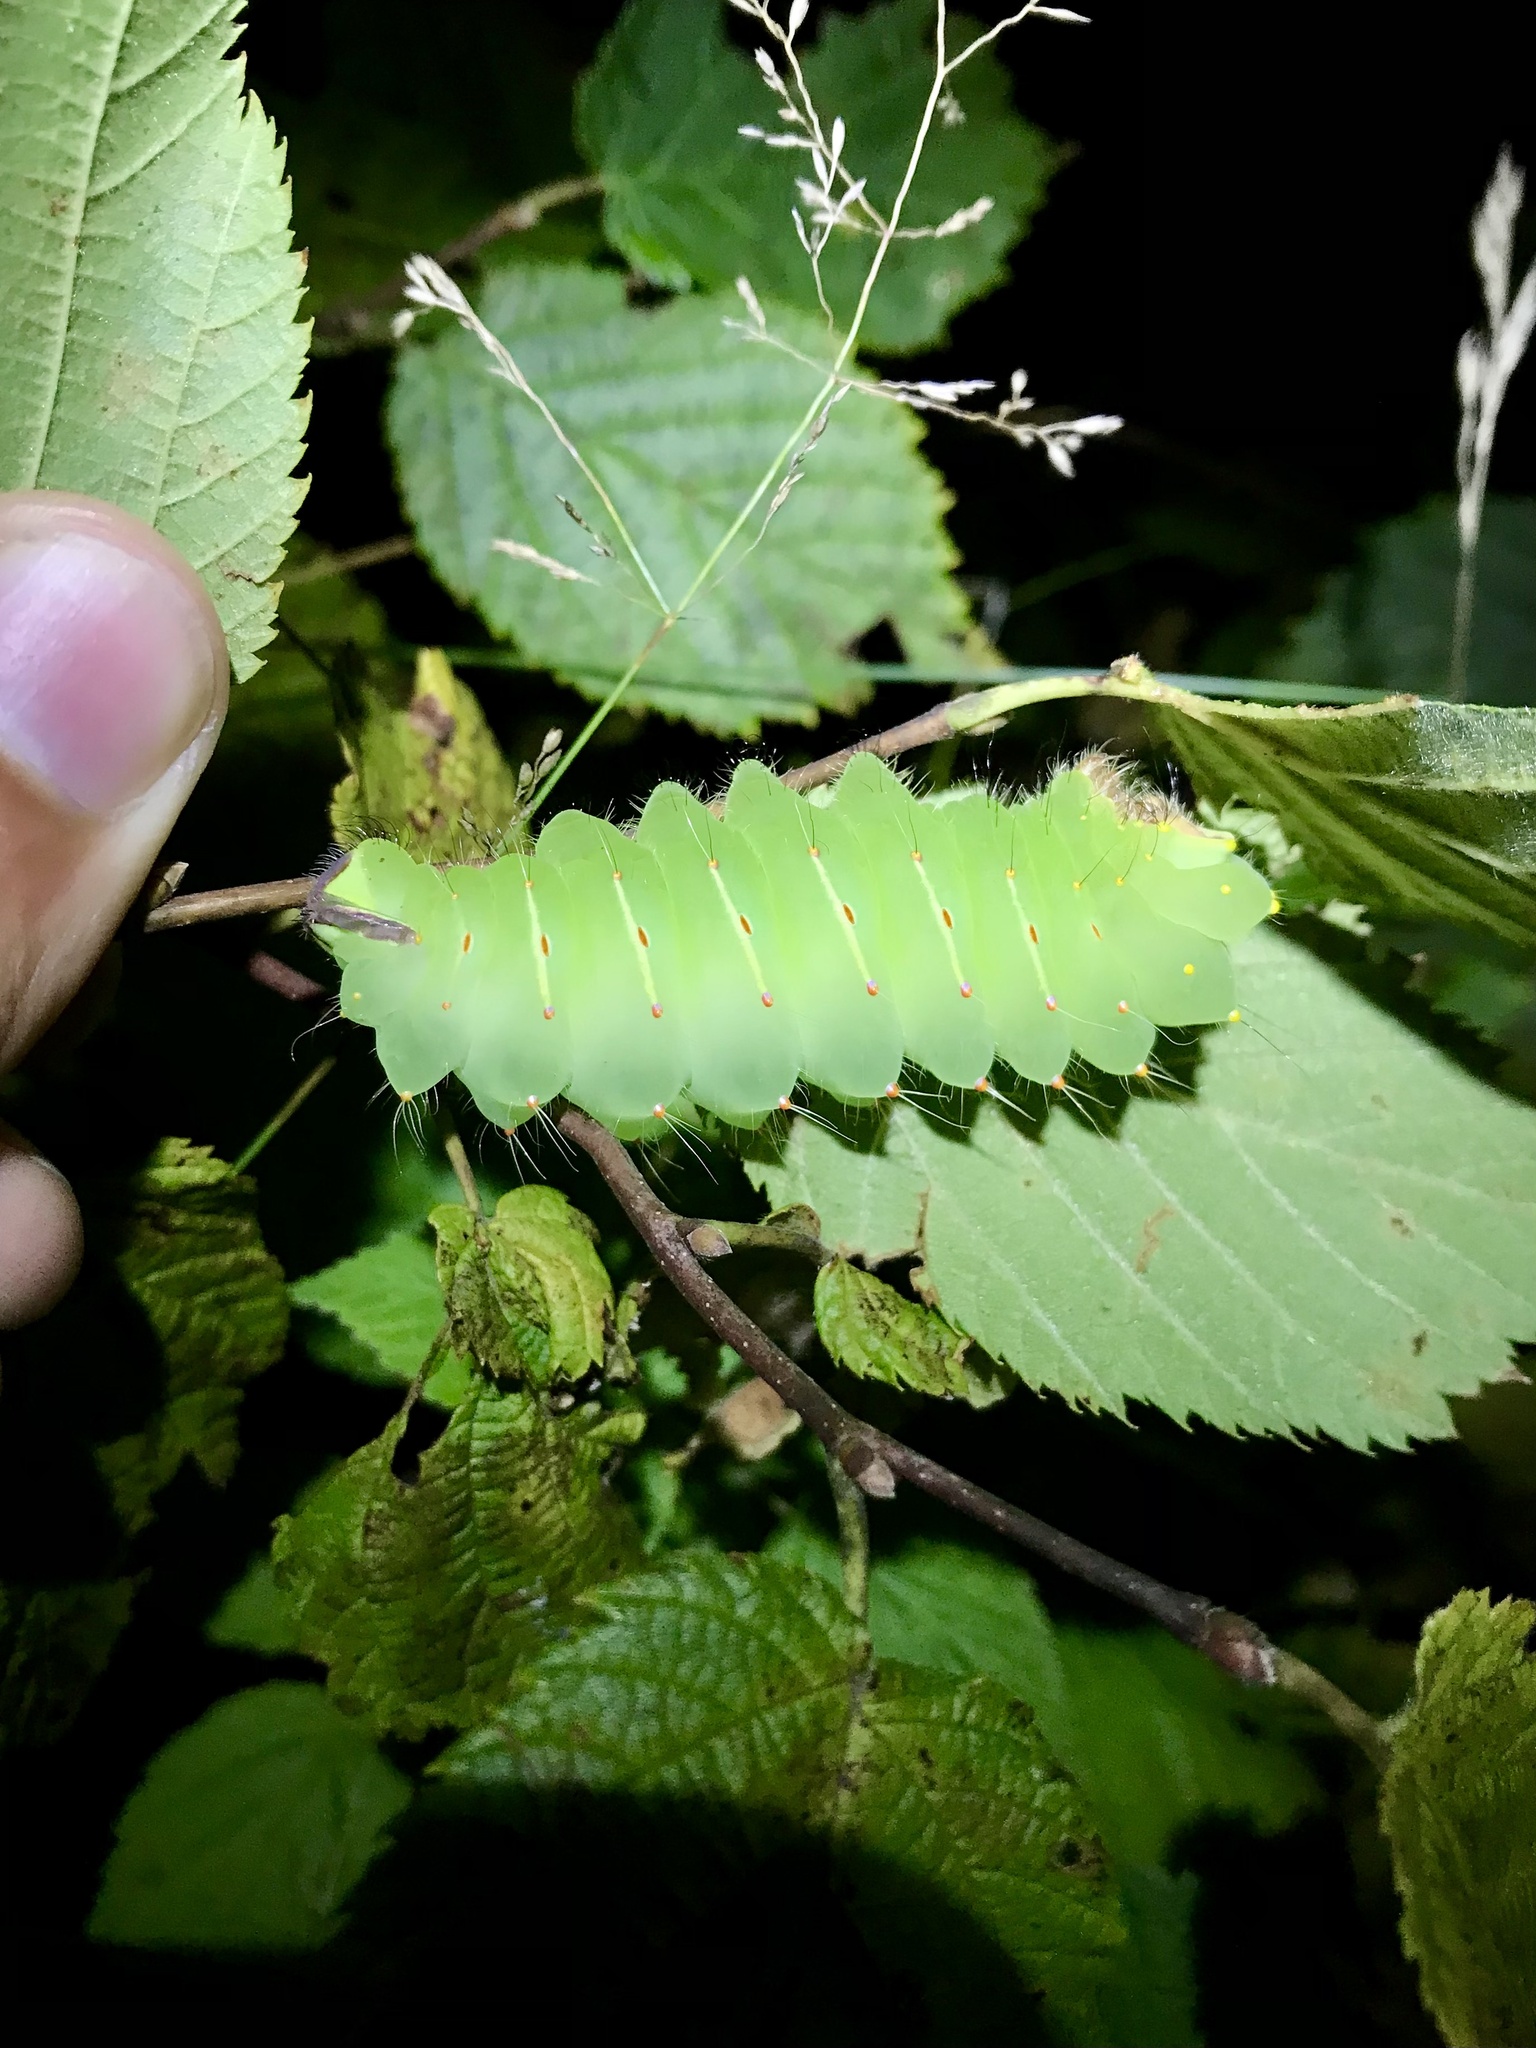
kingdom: Animalia
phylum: Arthropoda
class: Insecta
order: Lepidoptera
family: Saturniidae
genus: Antheraea
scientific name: Antheraea polyphemus
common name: Polyphemus moth
